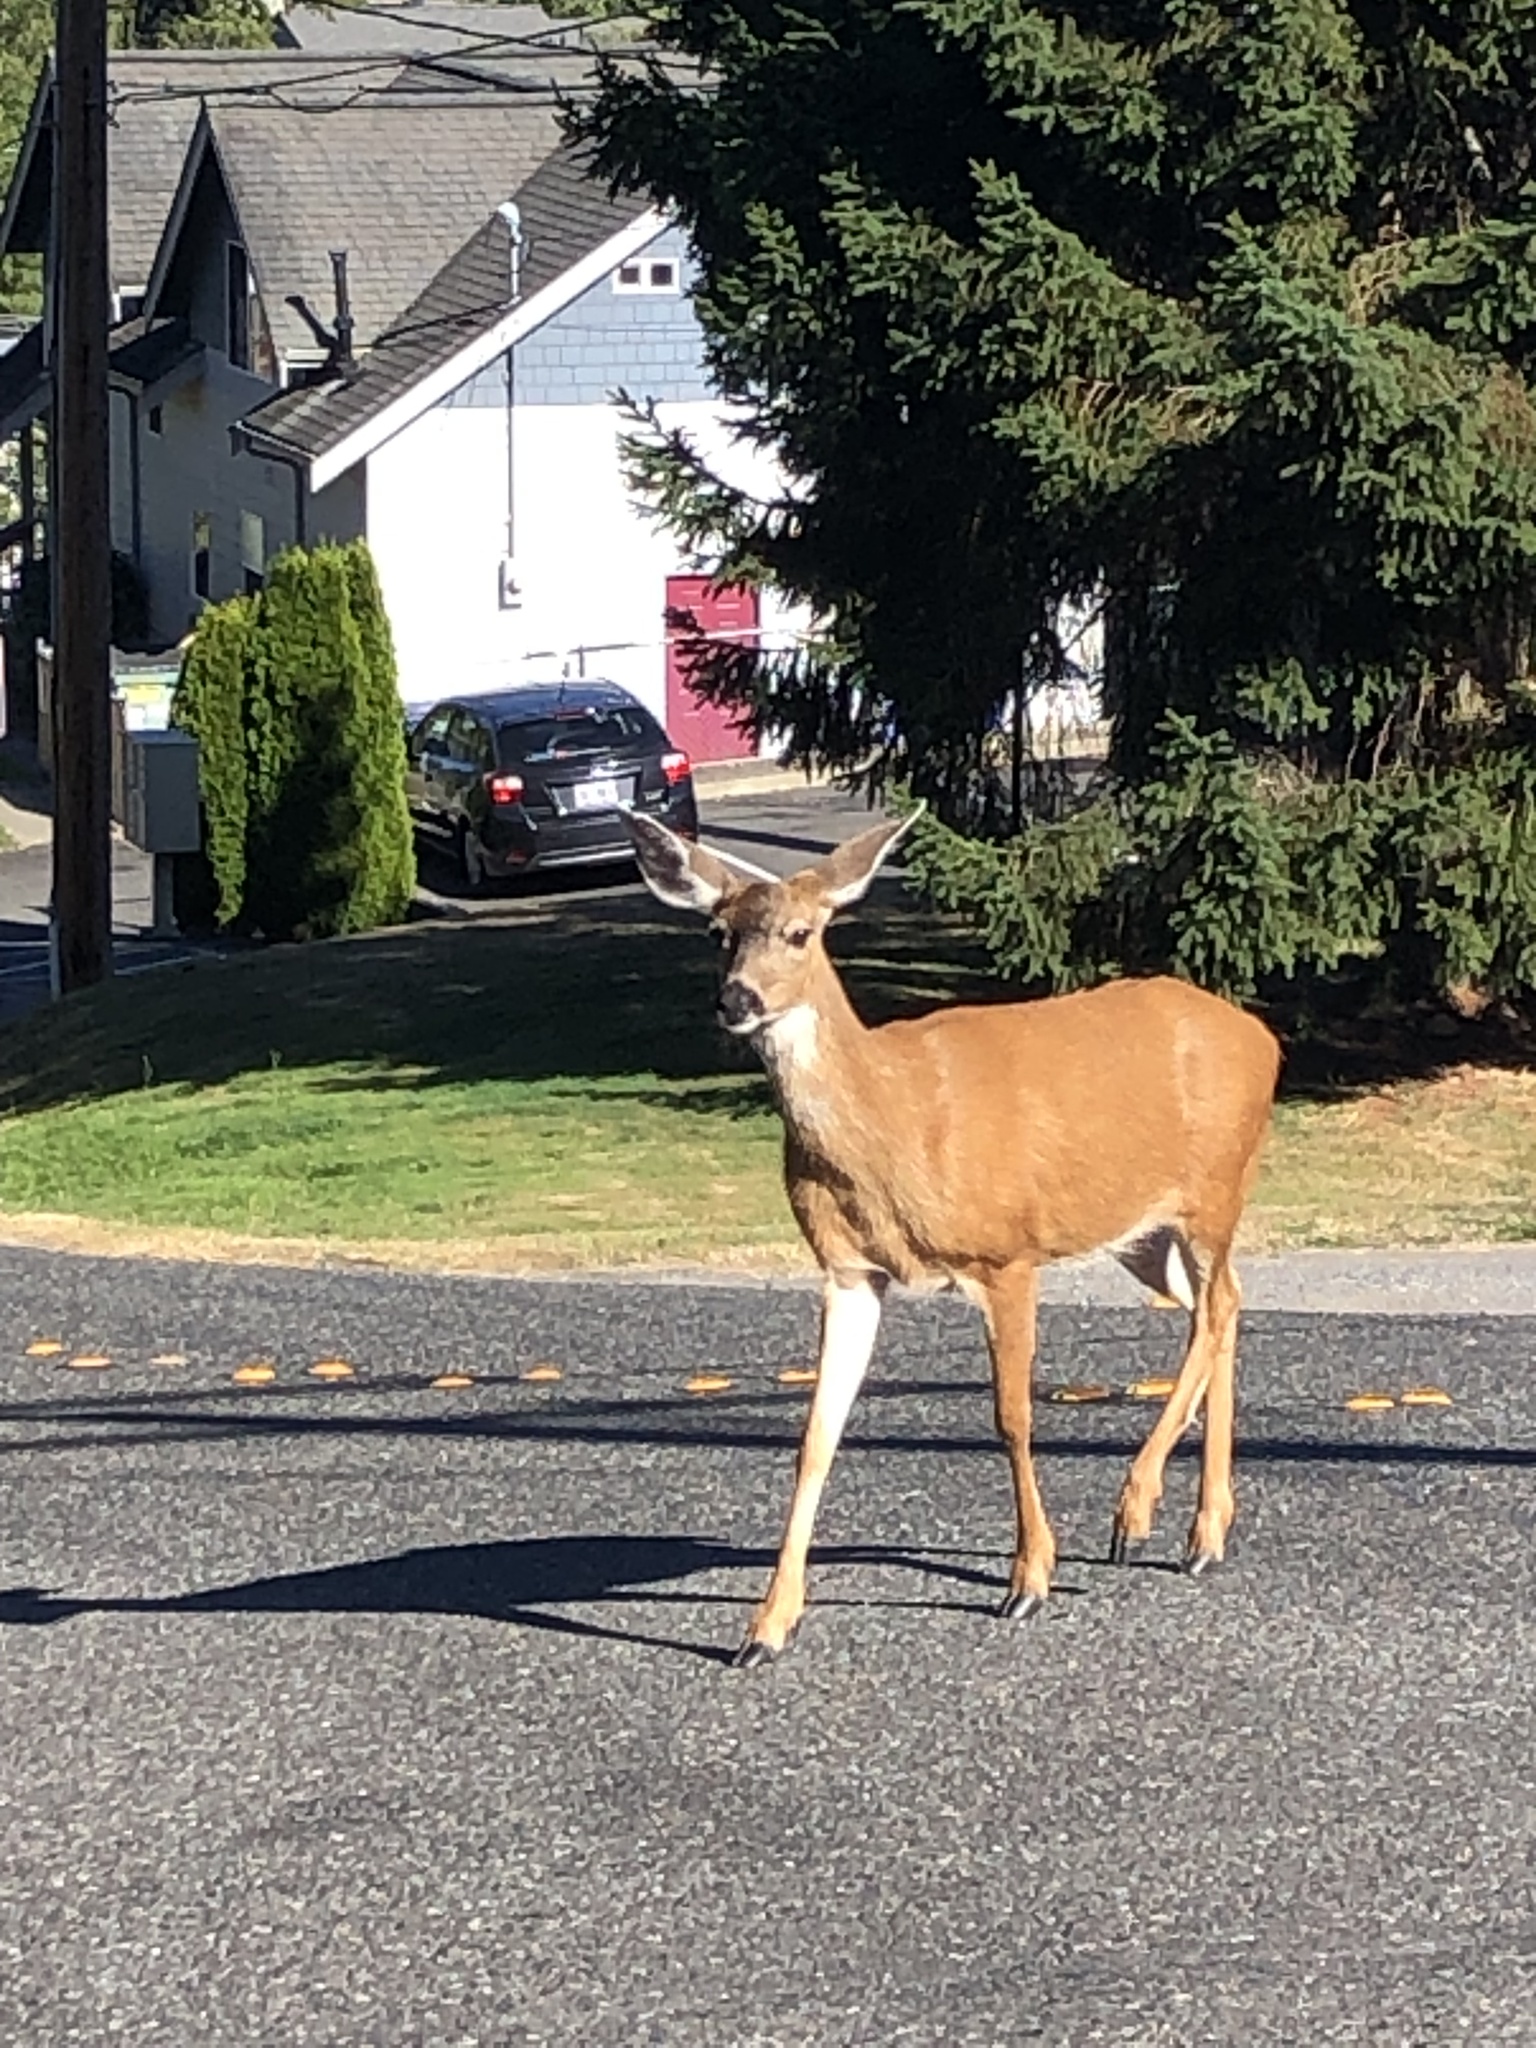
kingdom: Animalia
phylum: Chordata
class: Mammalia
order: Artiodactyla
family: Cervidae
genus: Odocoileus
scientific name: Odocoileus hemionus
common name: Mule deer
